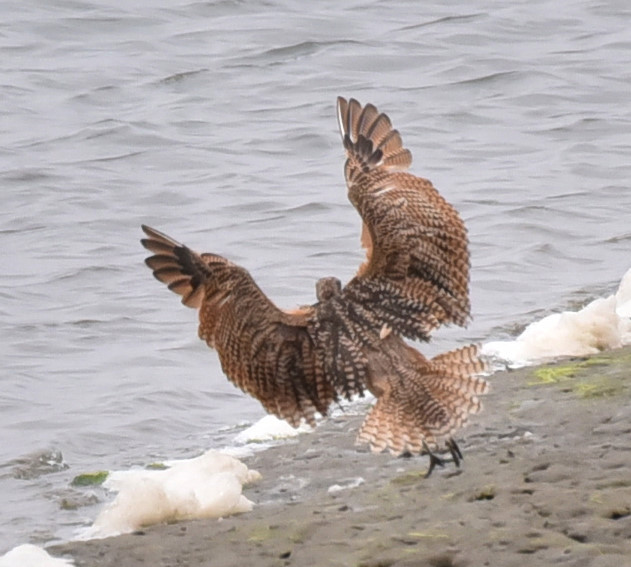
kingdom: Animalia
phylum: Chordata
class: Aves
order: Charadriiformes
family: Scolopacidae
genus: Numenius
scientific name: Numenius americanus
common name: Long-billed curlew
